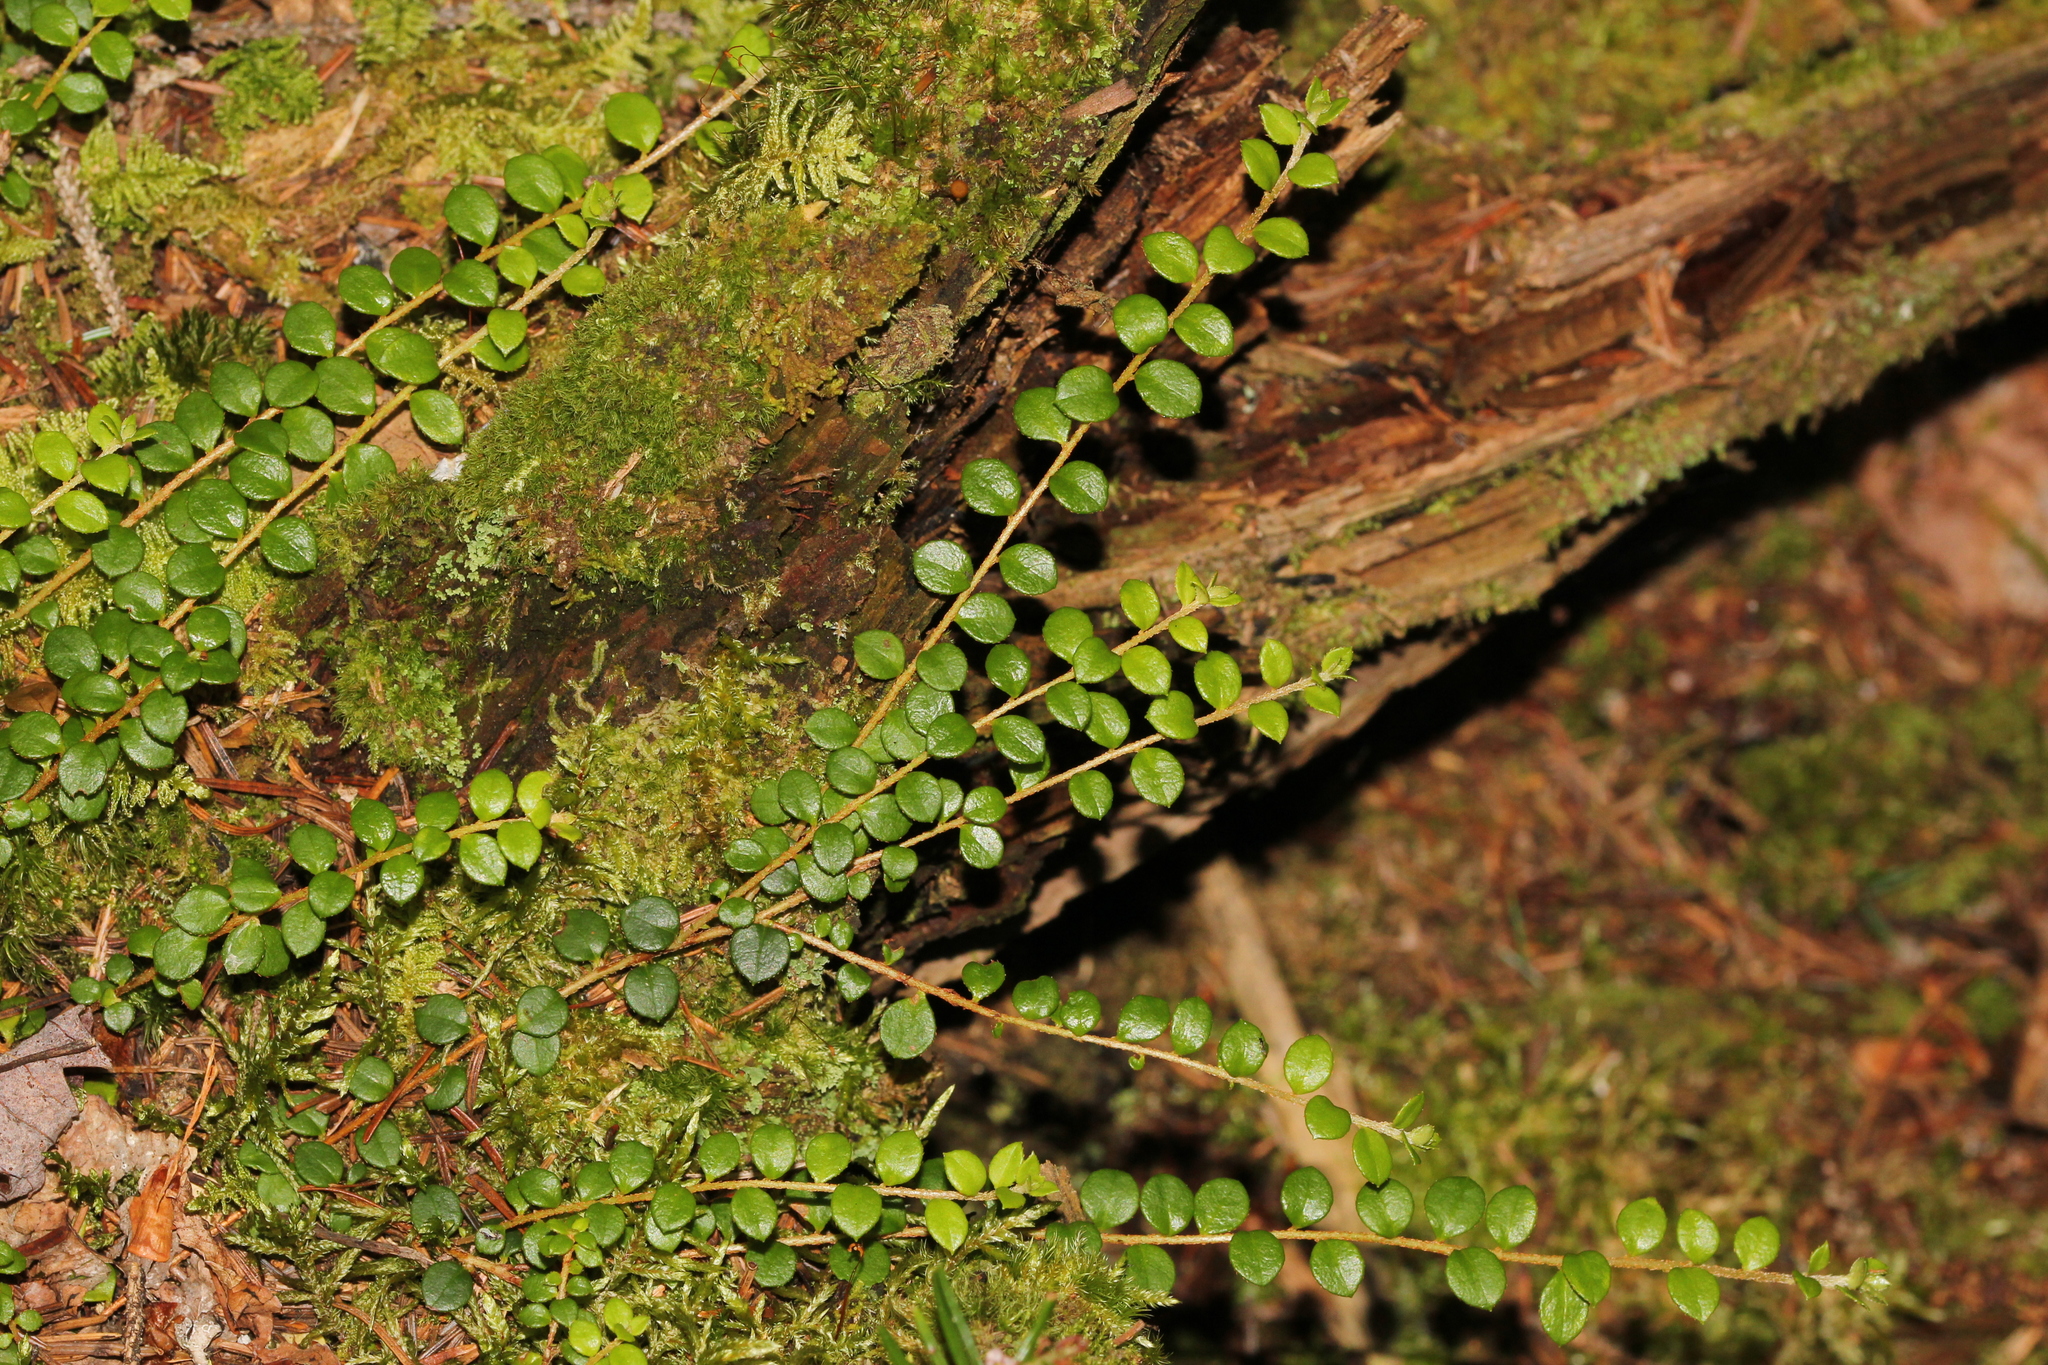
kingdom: Plantae
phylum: Tracheophyta
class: Magnoliopsida
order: Ericales
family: Ericaceae
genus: Gaultheria
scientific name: Gaultheria hispidula
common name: Cancer wintergreen
